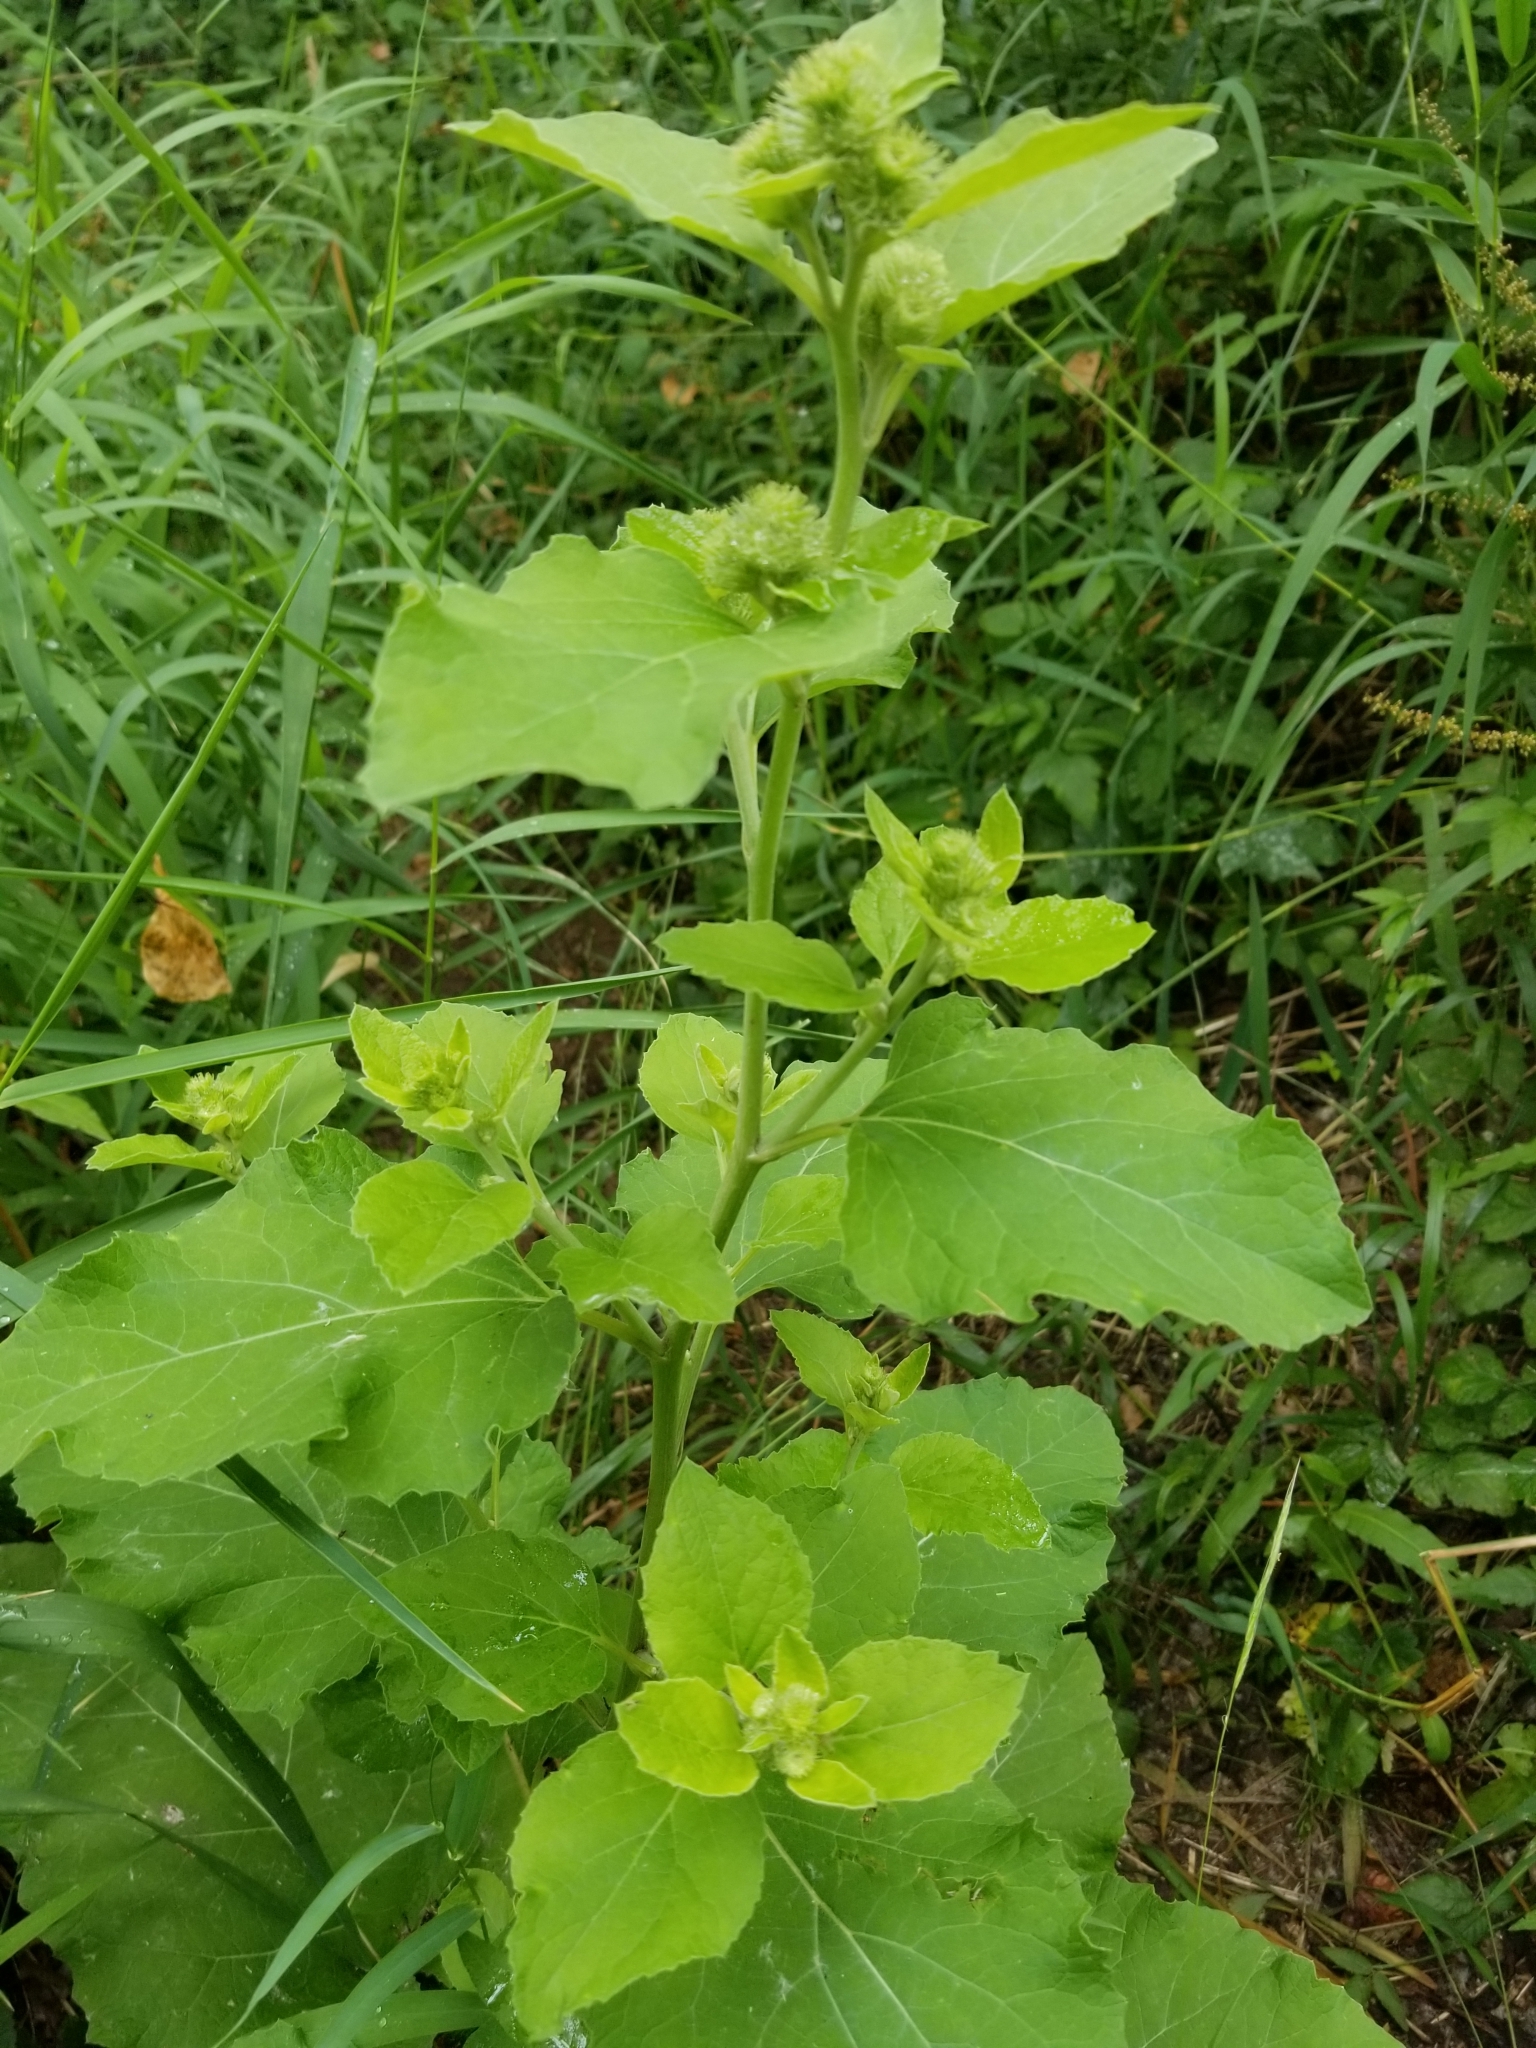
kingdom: Plantae
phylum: Tracheophyta
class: Magnoliopsida
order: Asterales
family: Asteraceae
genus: Arctium
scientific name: Arctium minus
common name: Lesser burdock
